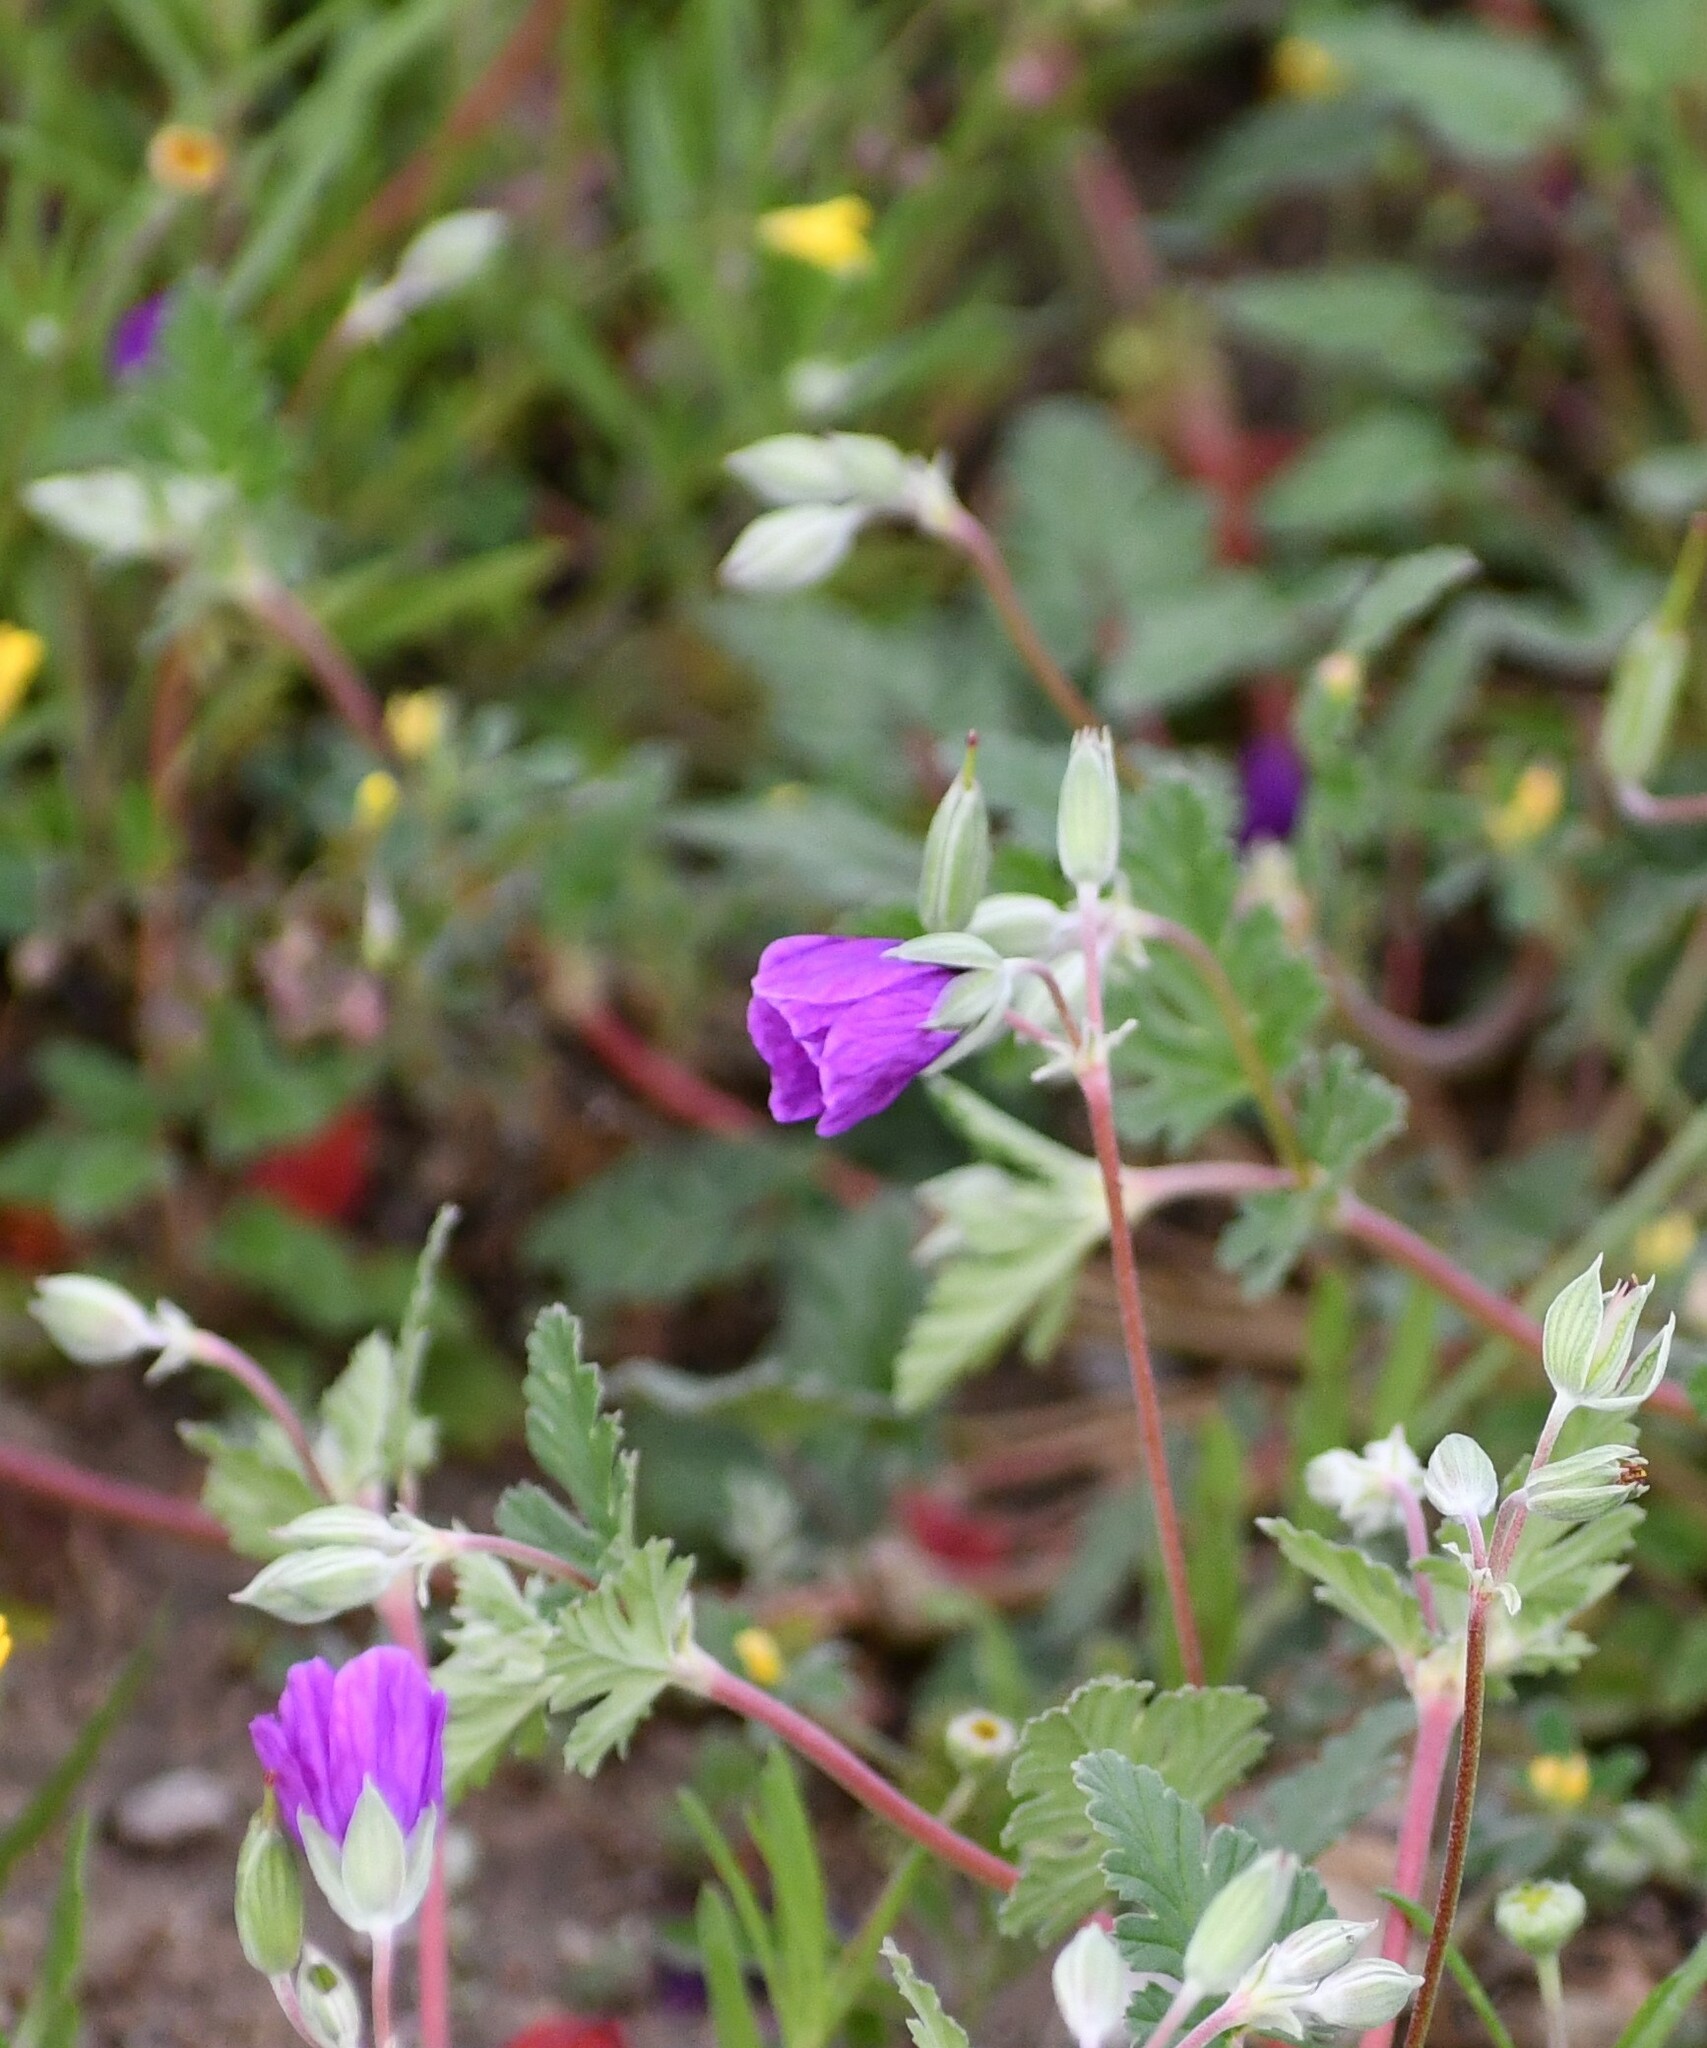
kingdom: Plantae
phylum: Tracheophyta
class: Magnoliopsida
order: Geraniales
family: Geraniaceae
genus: Erodium
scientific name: Erodium texanum
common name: Texas stork's-bill
